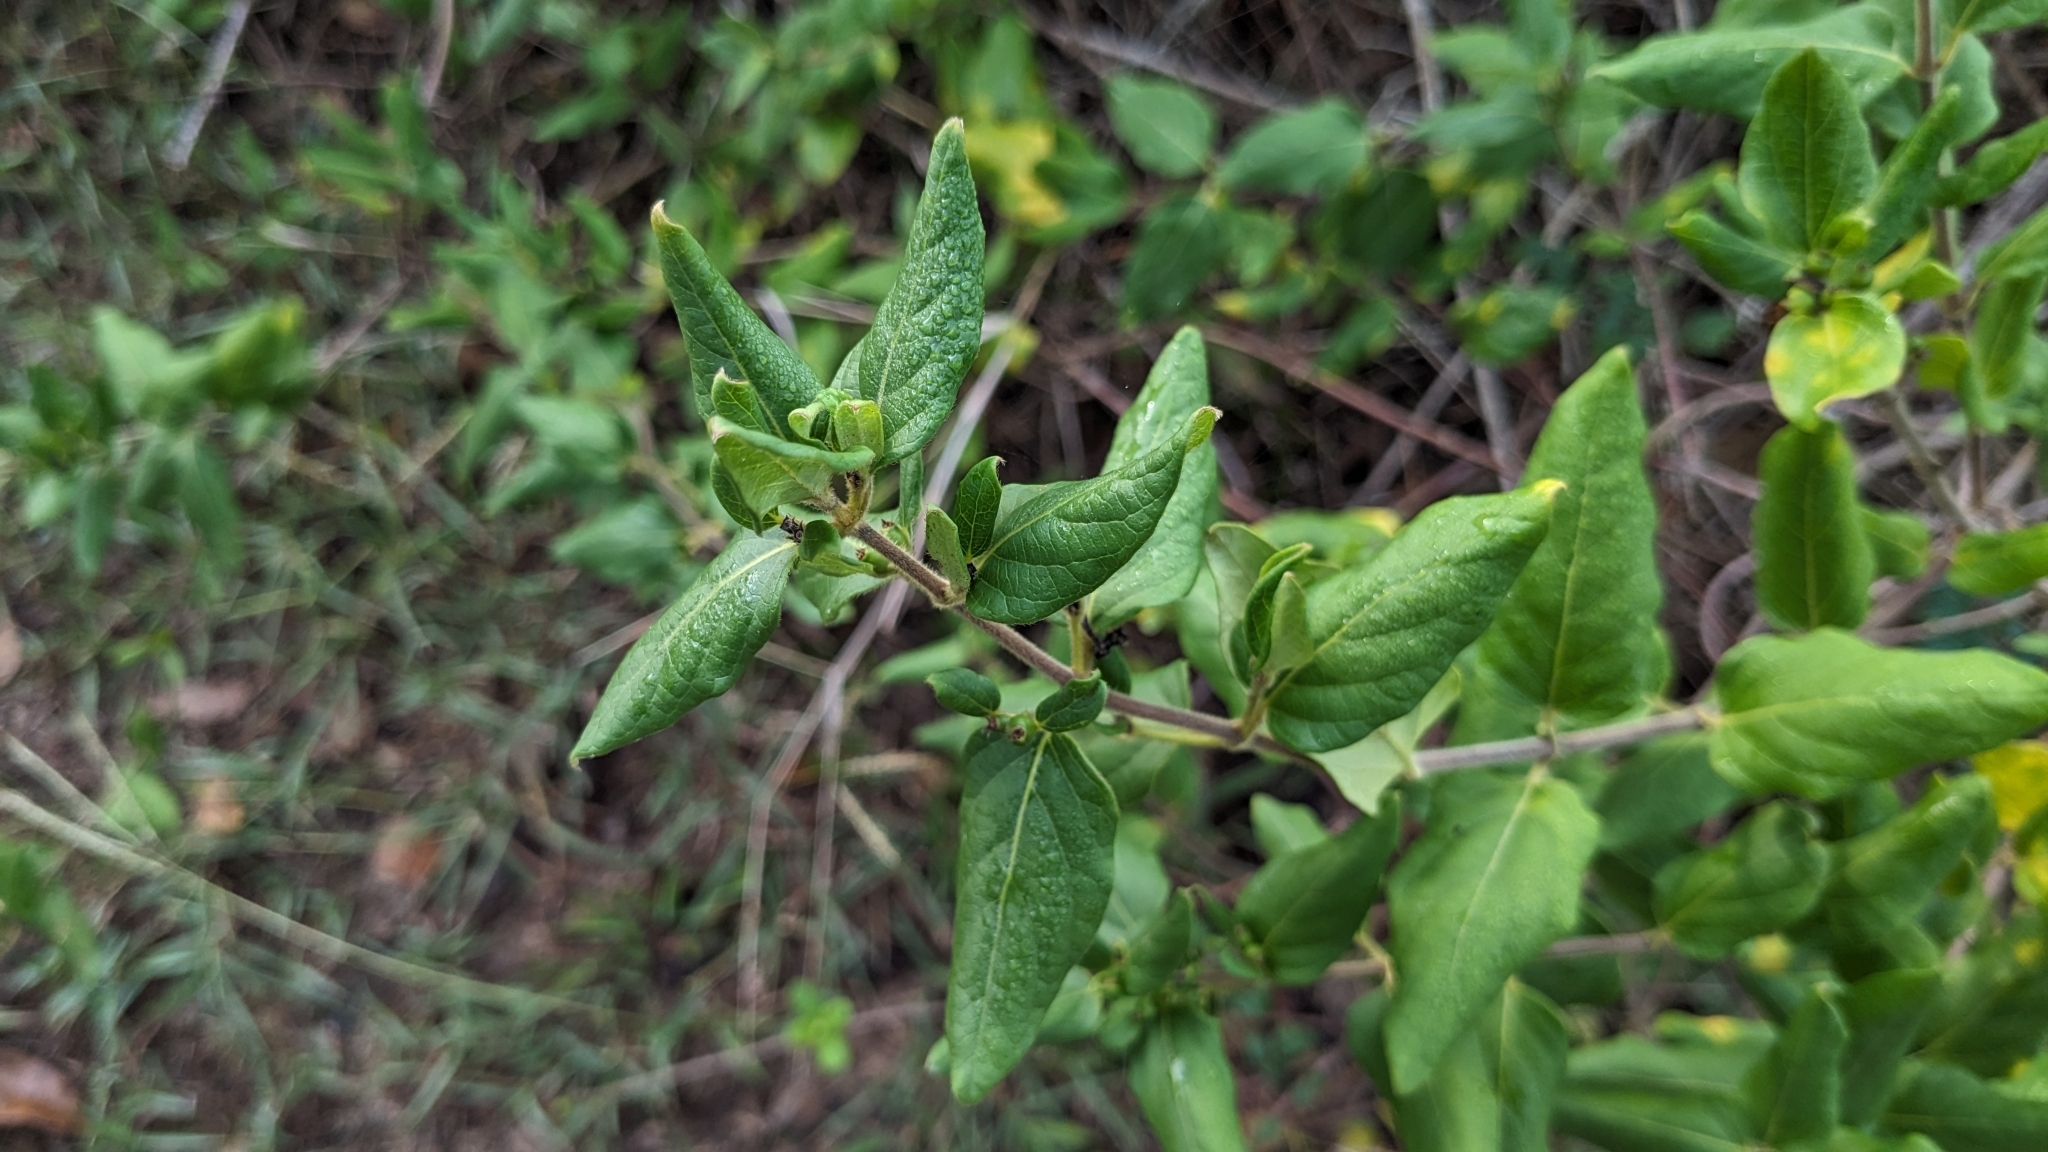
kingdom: Plantae
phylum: Tracheophyta
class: Magnoliopsida
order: Dipsacales
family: Caprifoliaceae
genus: Lonicera
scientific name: Lonicera japonica
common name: Japanese honeysuckle
